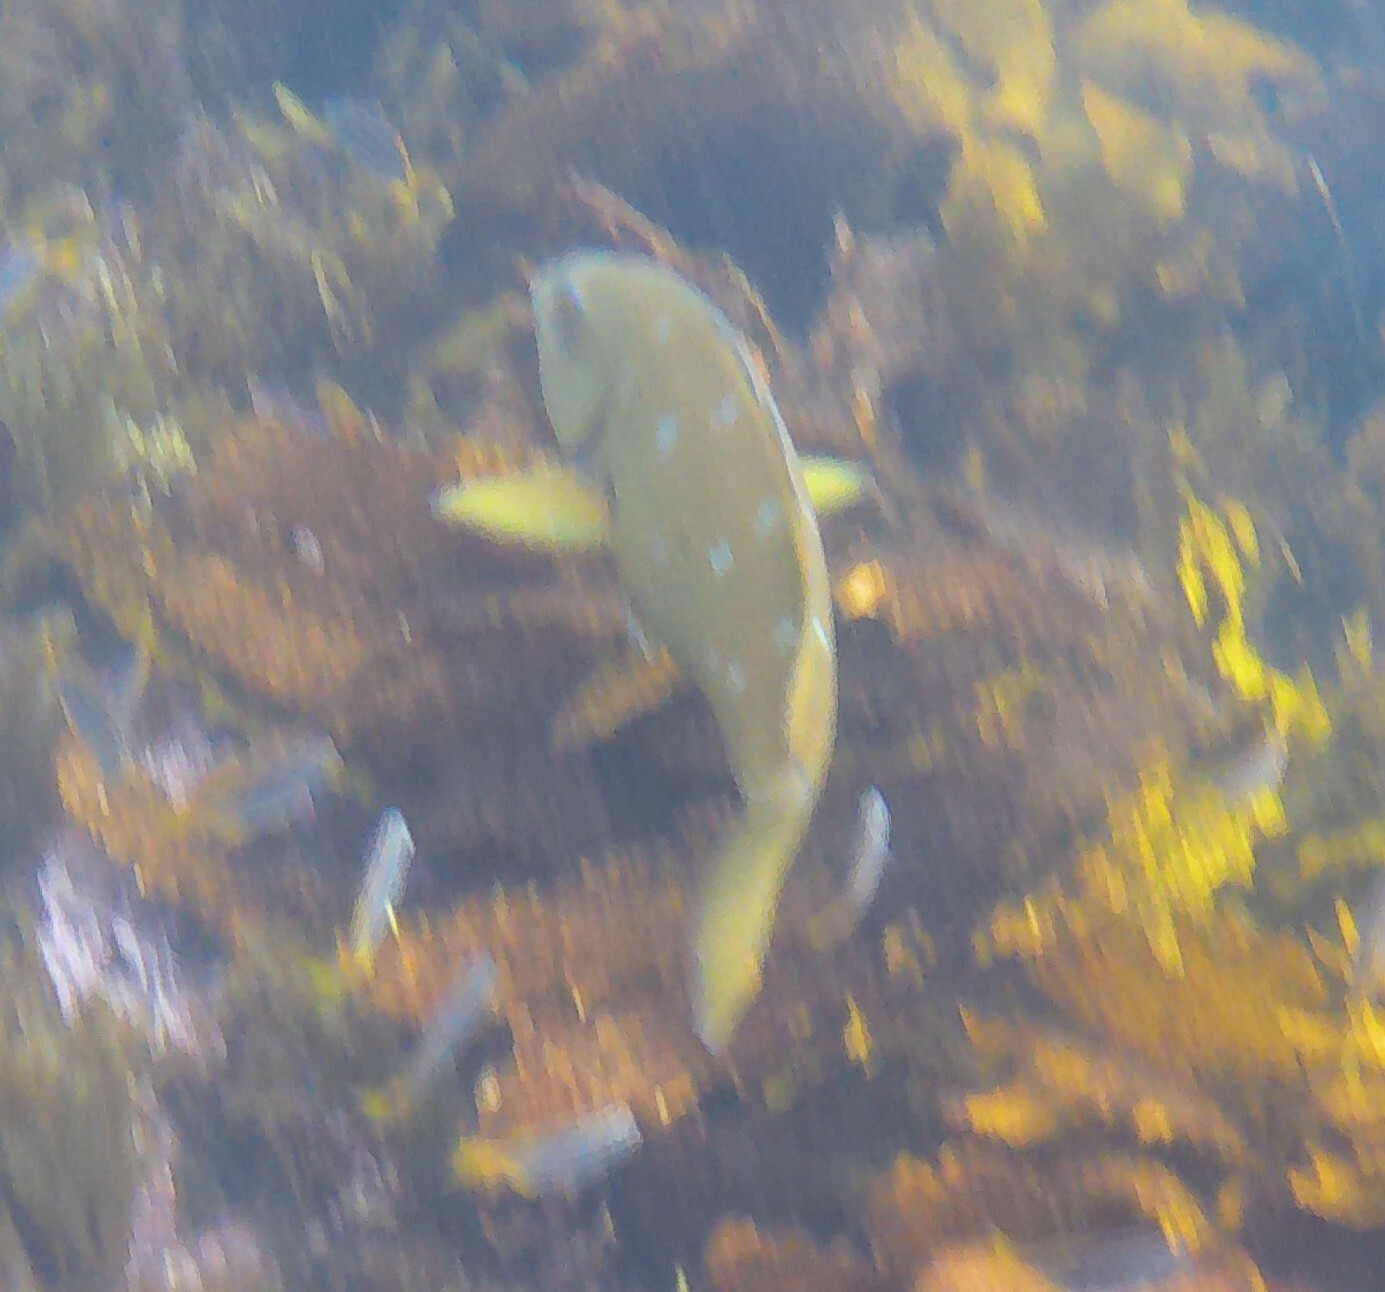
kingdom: Animalia
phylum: Chordata
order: Perciformes
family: Labridae
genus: Achoerodus
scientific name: Achoerodus viridis
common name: Brown groper
